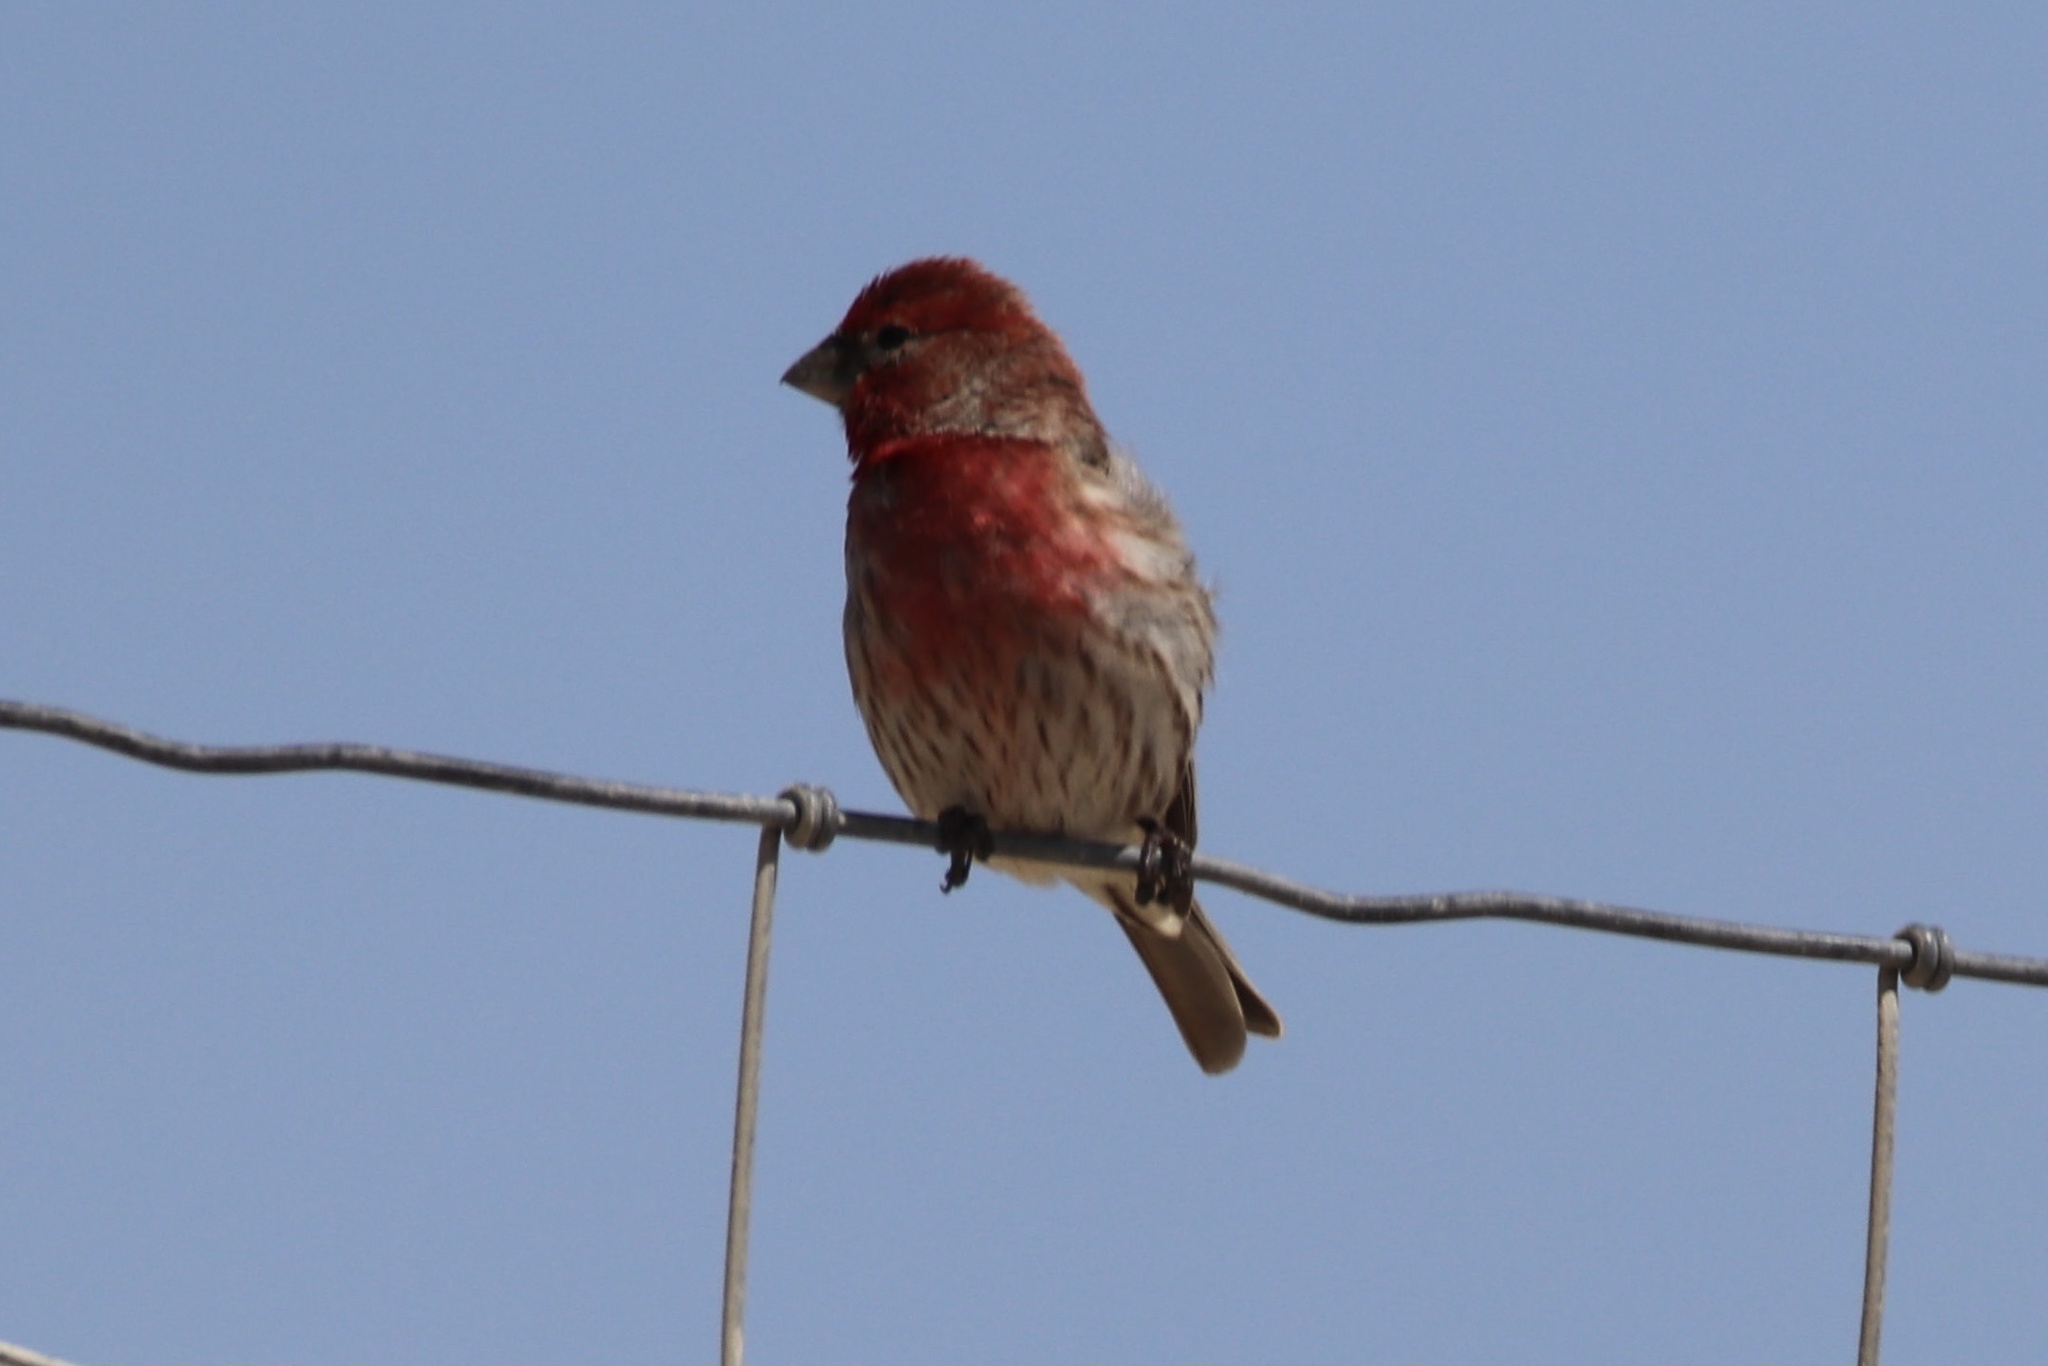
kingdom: Animalia
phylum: Chordata
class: Aves
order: Passeriformes
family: Fringillidae
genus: Haemorhous
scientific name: Haemorhous mexicanus
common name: House finch
